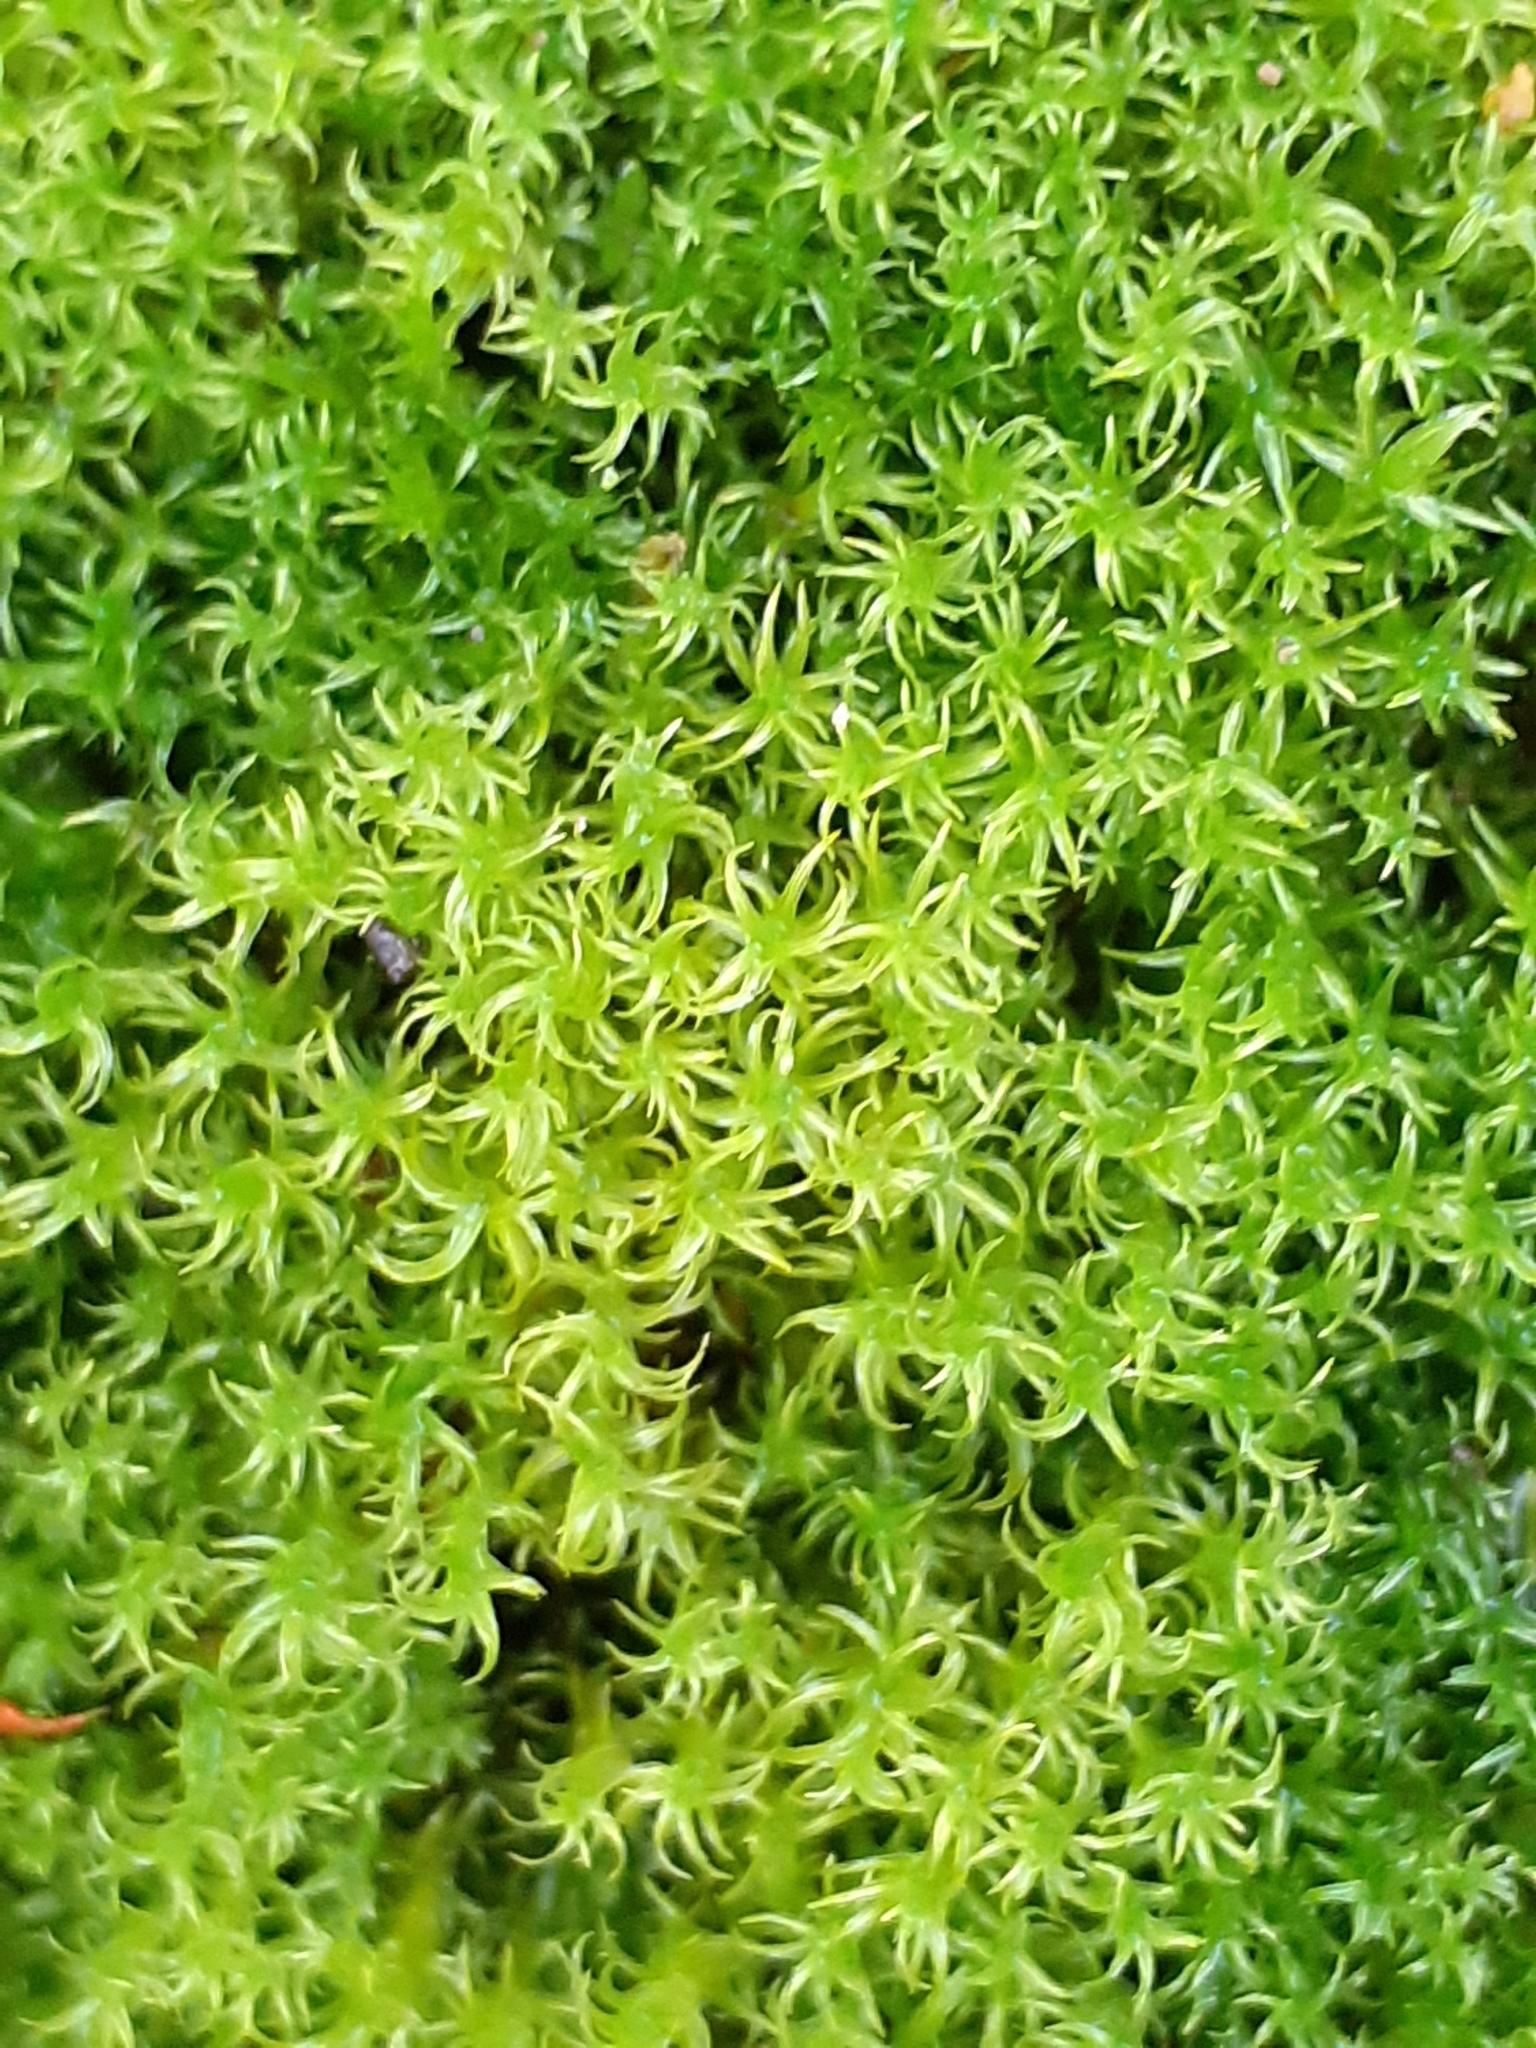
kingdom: Plantae
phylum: Bryophyta
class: Bryopsida
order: Pottiales
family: Pottiaceae
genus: Vinealobryum
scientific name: Vinealobryum insulanum
